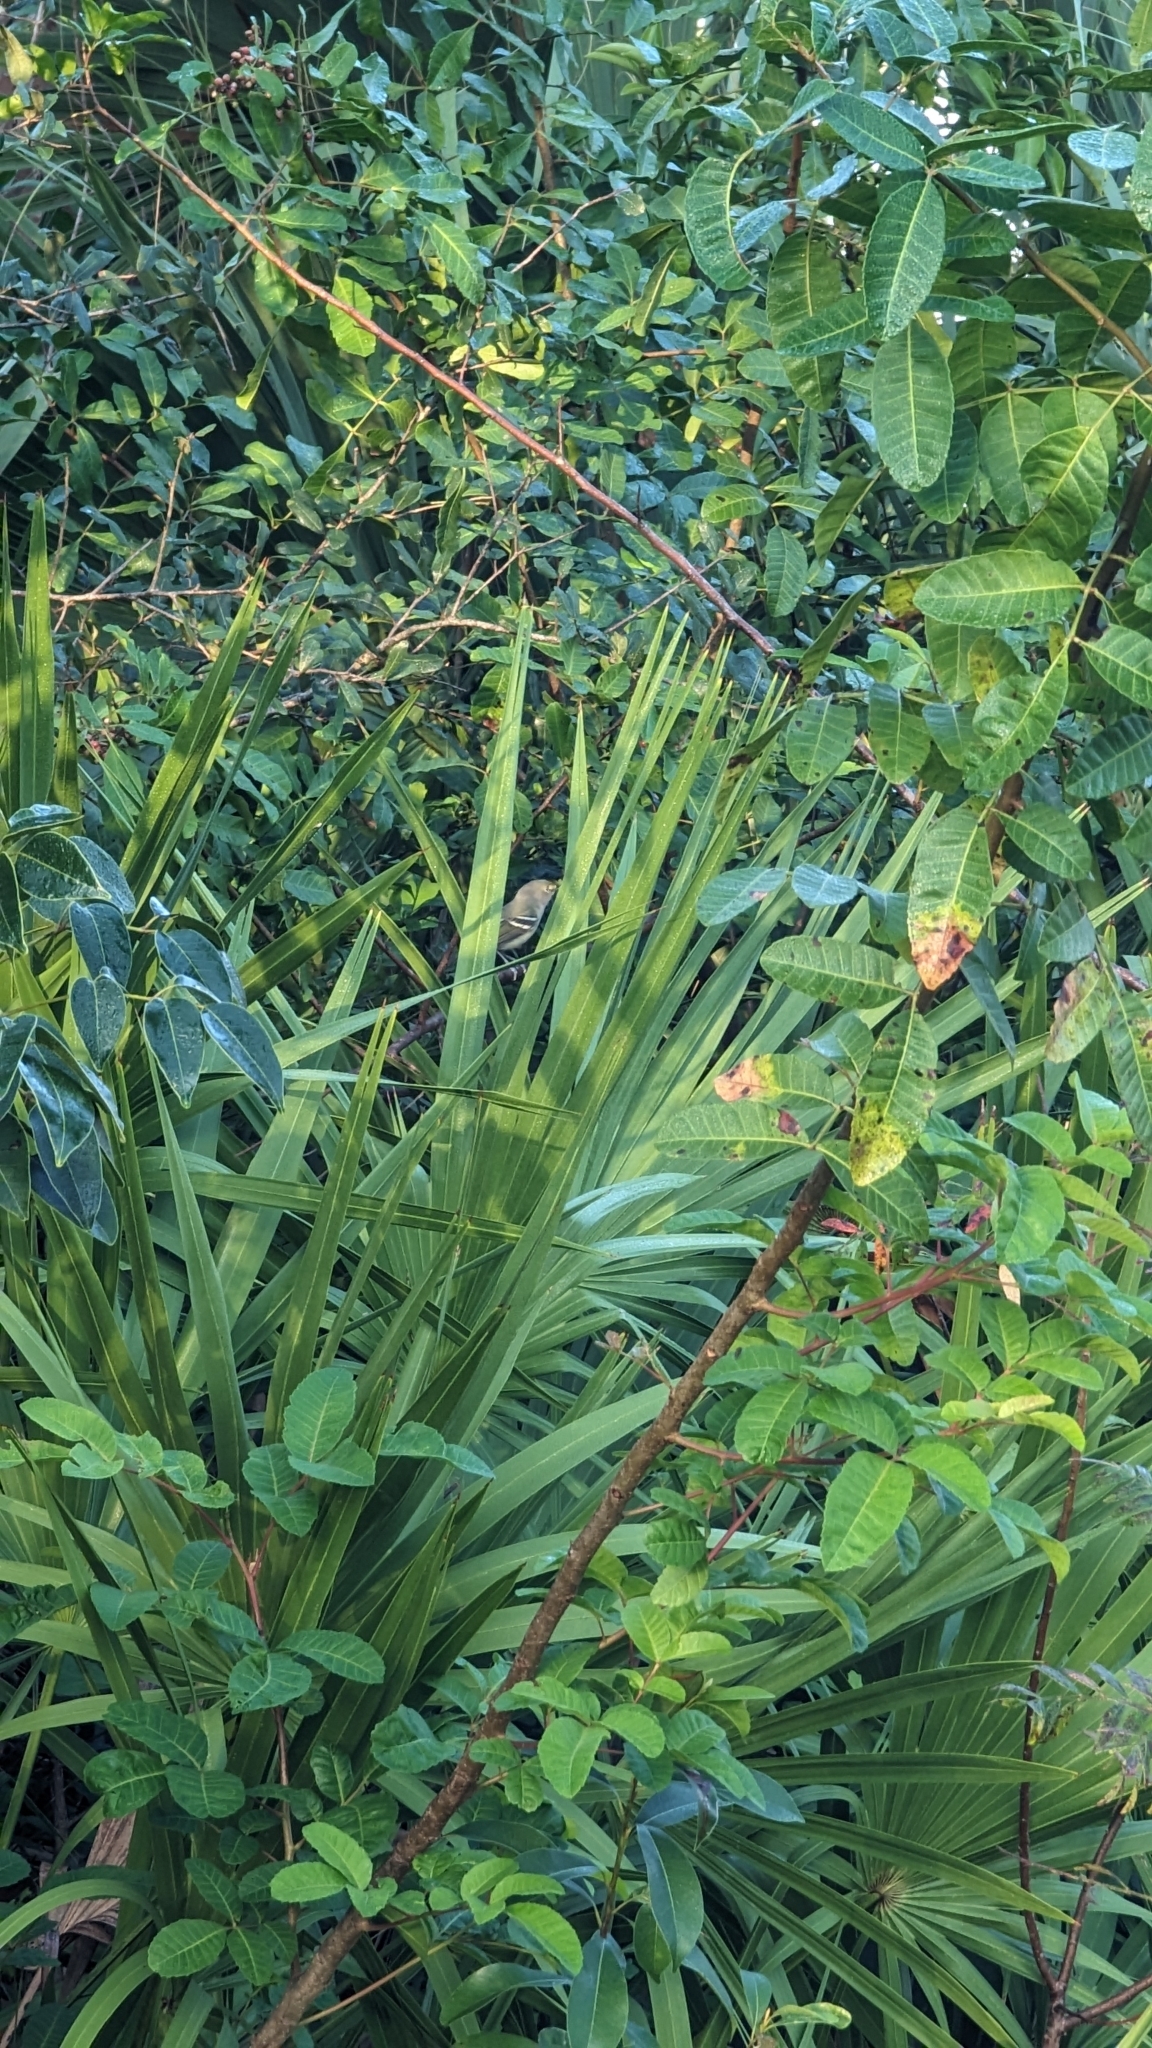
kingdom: Animalia
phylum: Chordata
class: Aves
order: Passeriformes
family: Vireonidae
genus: Vireo
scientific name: Vireo griseus
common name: White-eyed vireo
